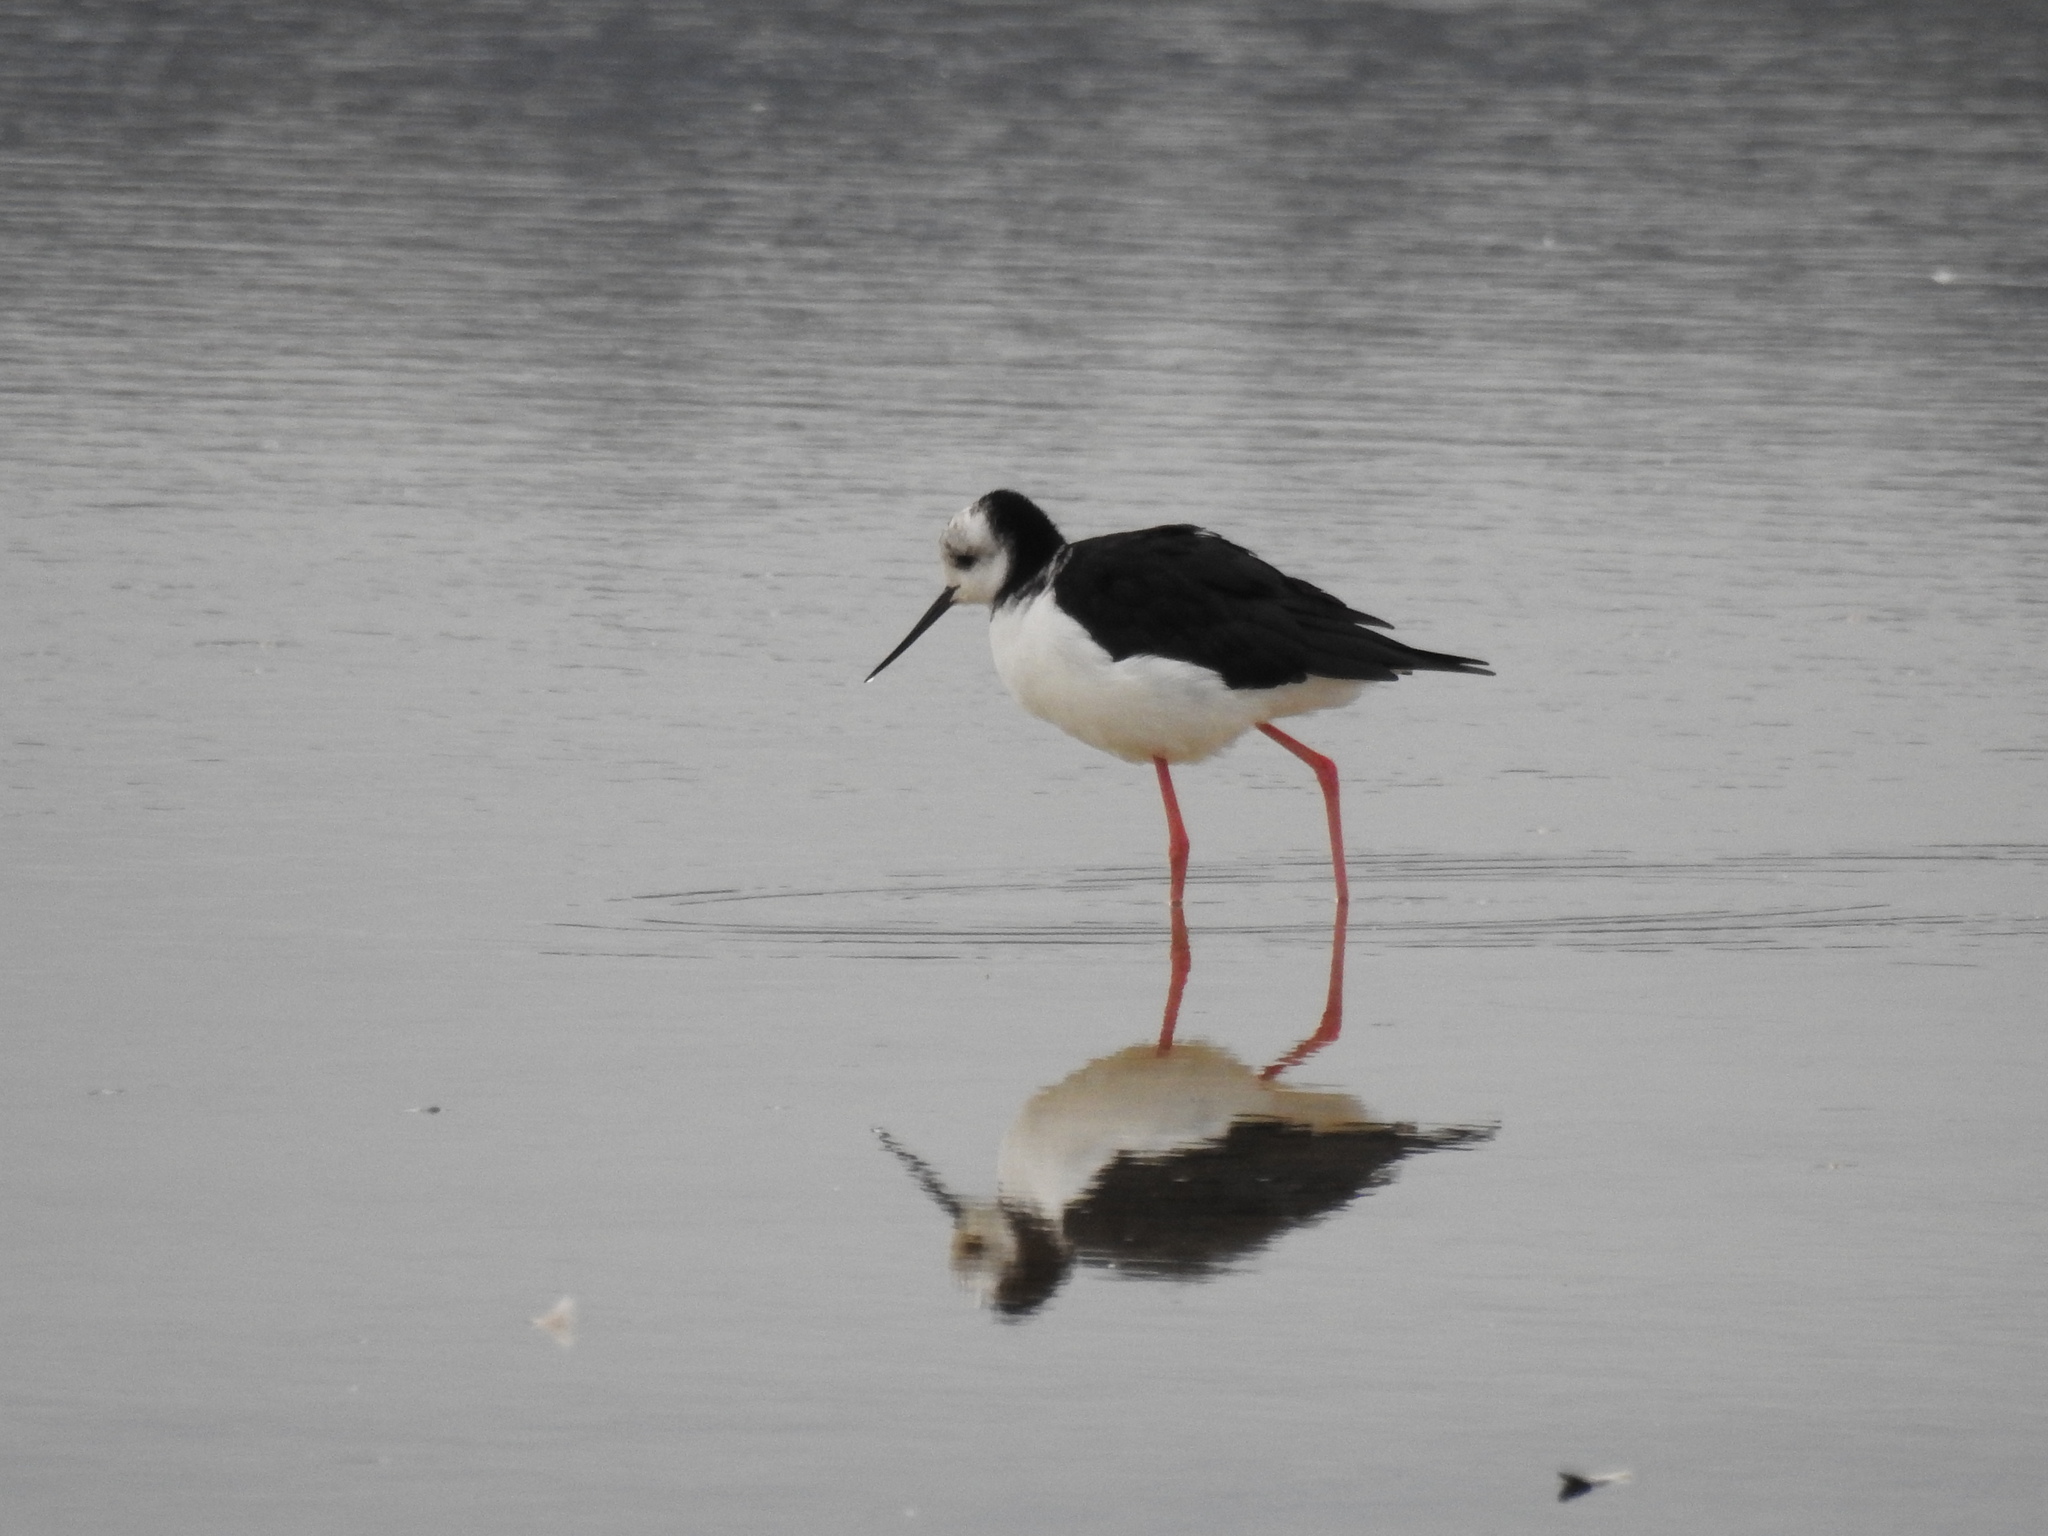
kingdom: Animalia
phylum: Chordata
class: Aves
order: Charadriiformes
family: Recurvirostridae
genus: Himantopus
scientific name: Himantopus leucocephalus
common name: White-headed stilt
